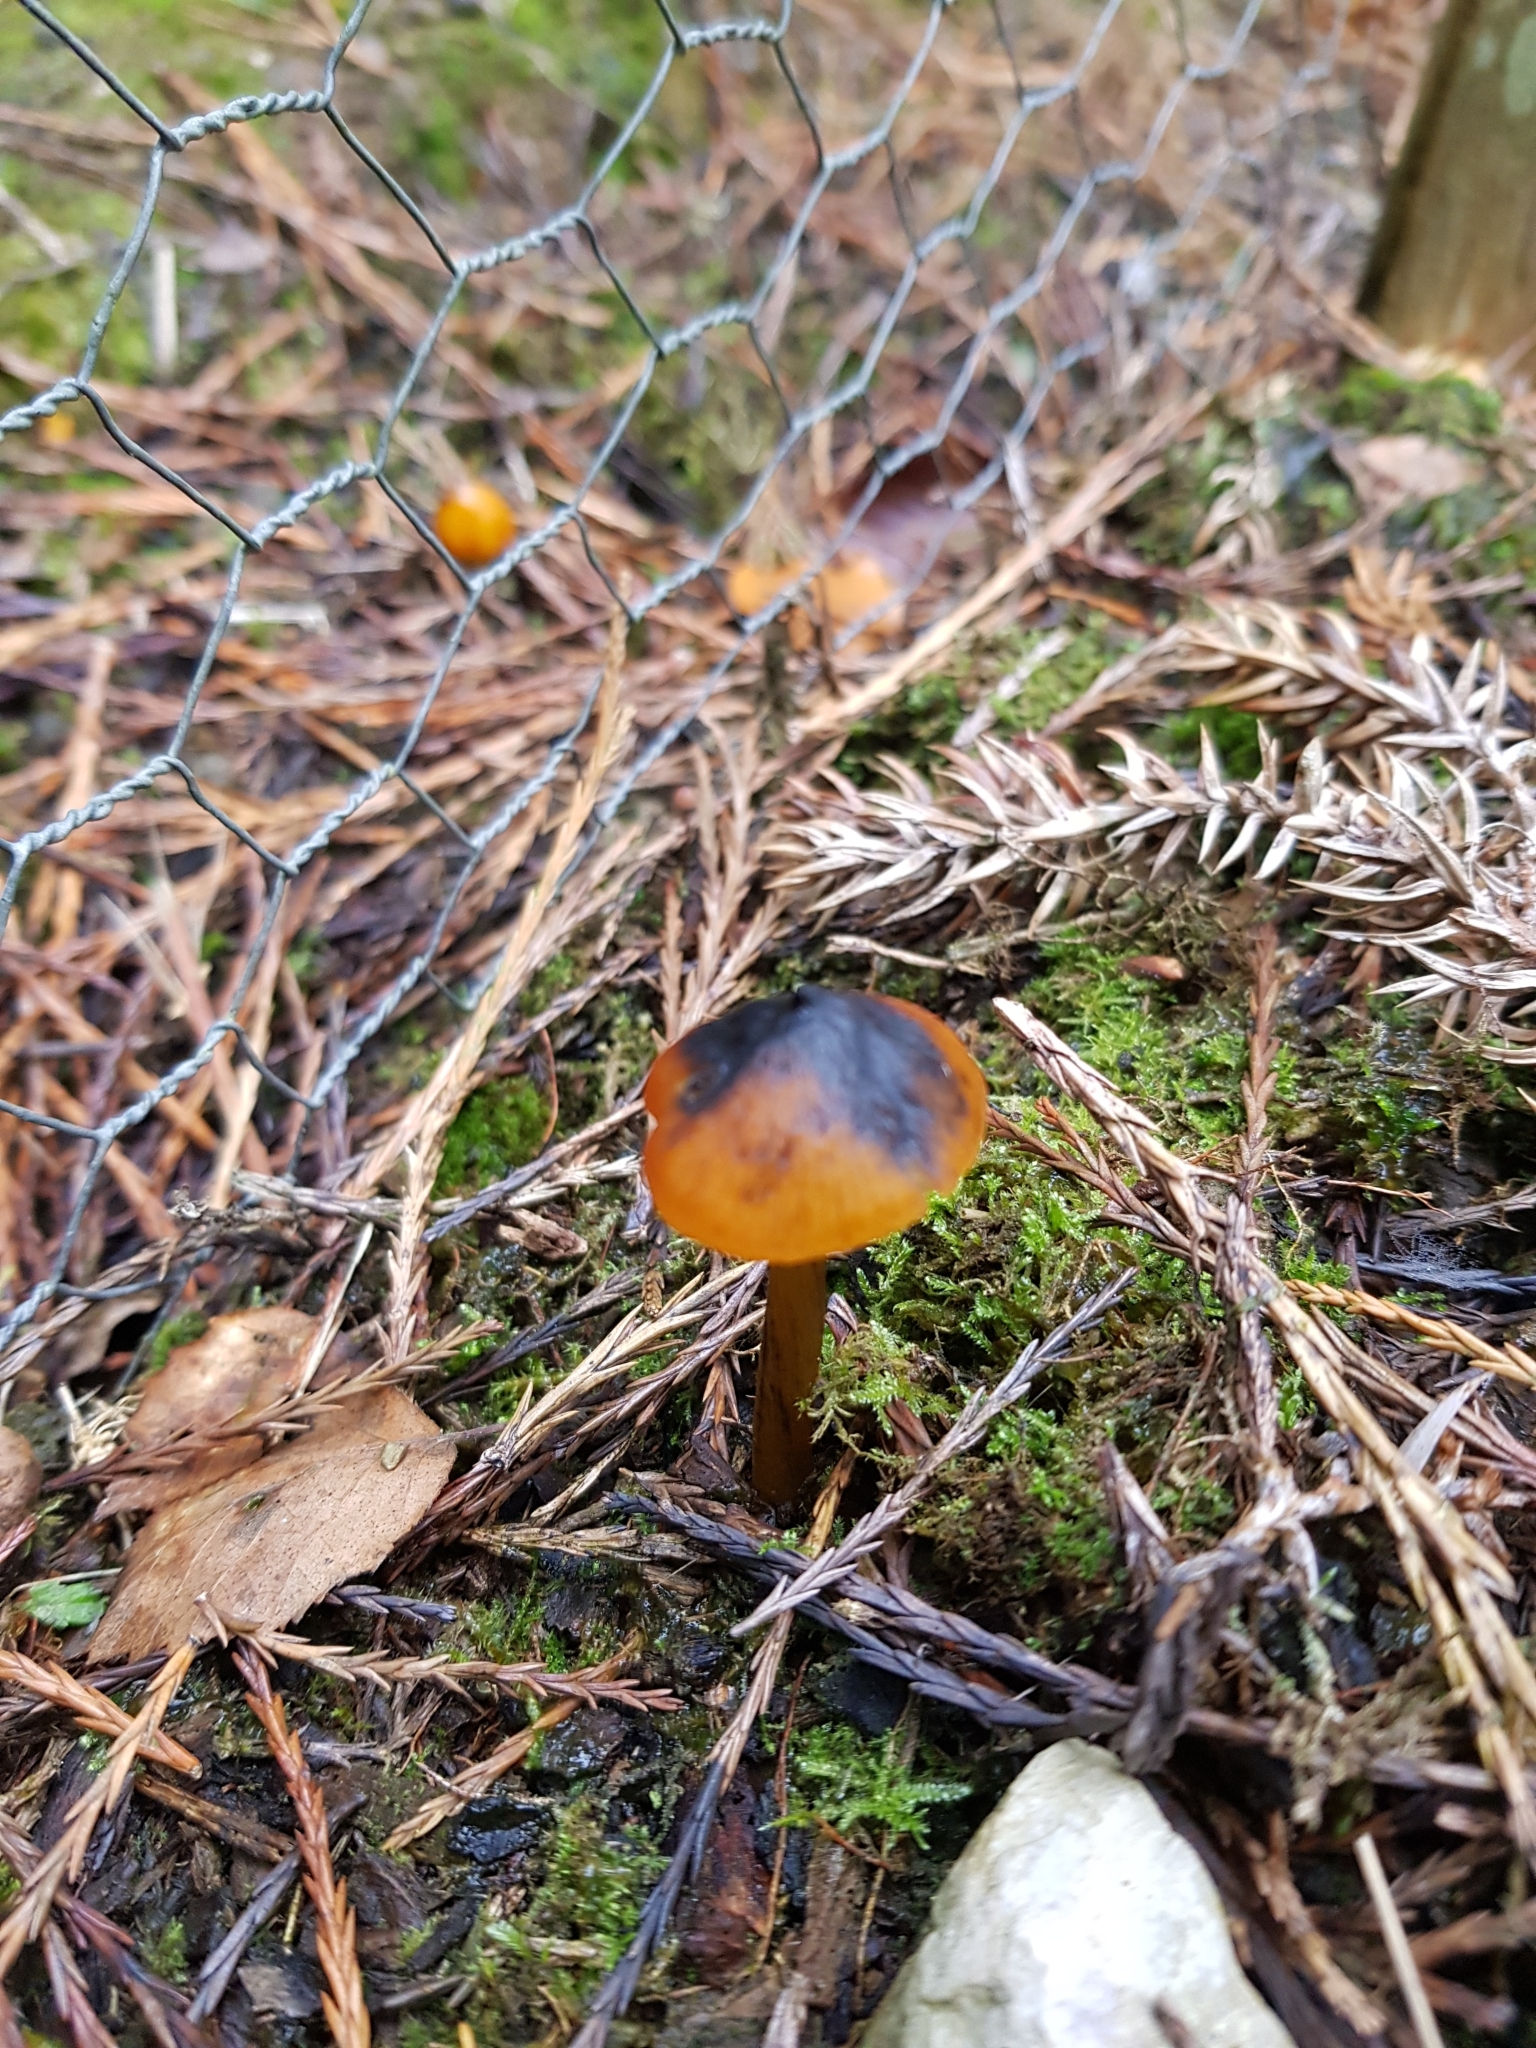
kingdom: Fungi
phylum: Basidiomycota
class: Agaricomycetes
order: Agaricales
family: Hygrophoraceae
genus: Hygrocybe
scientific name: Hygrocybe conica
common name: Blackening wax-cap
